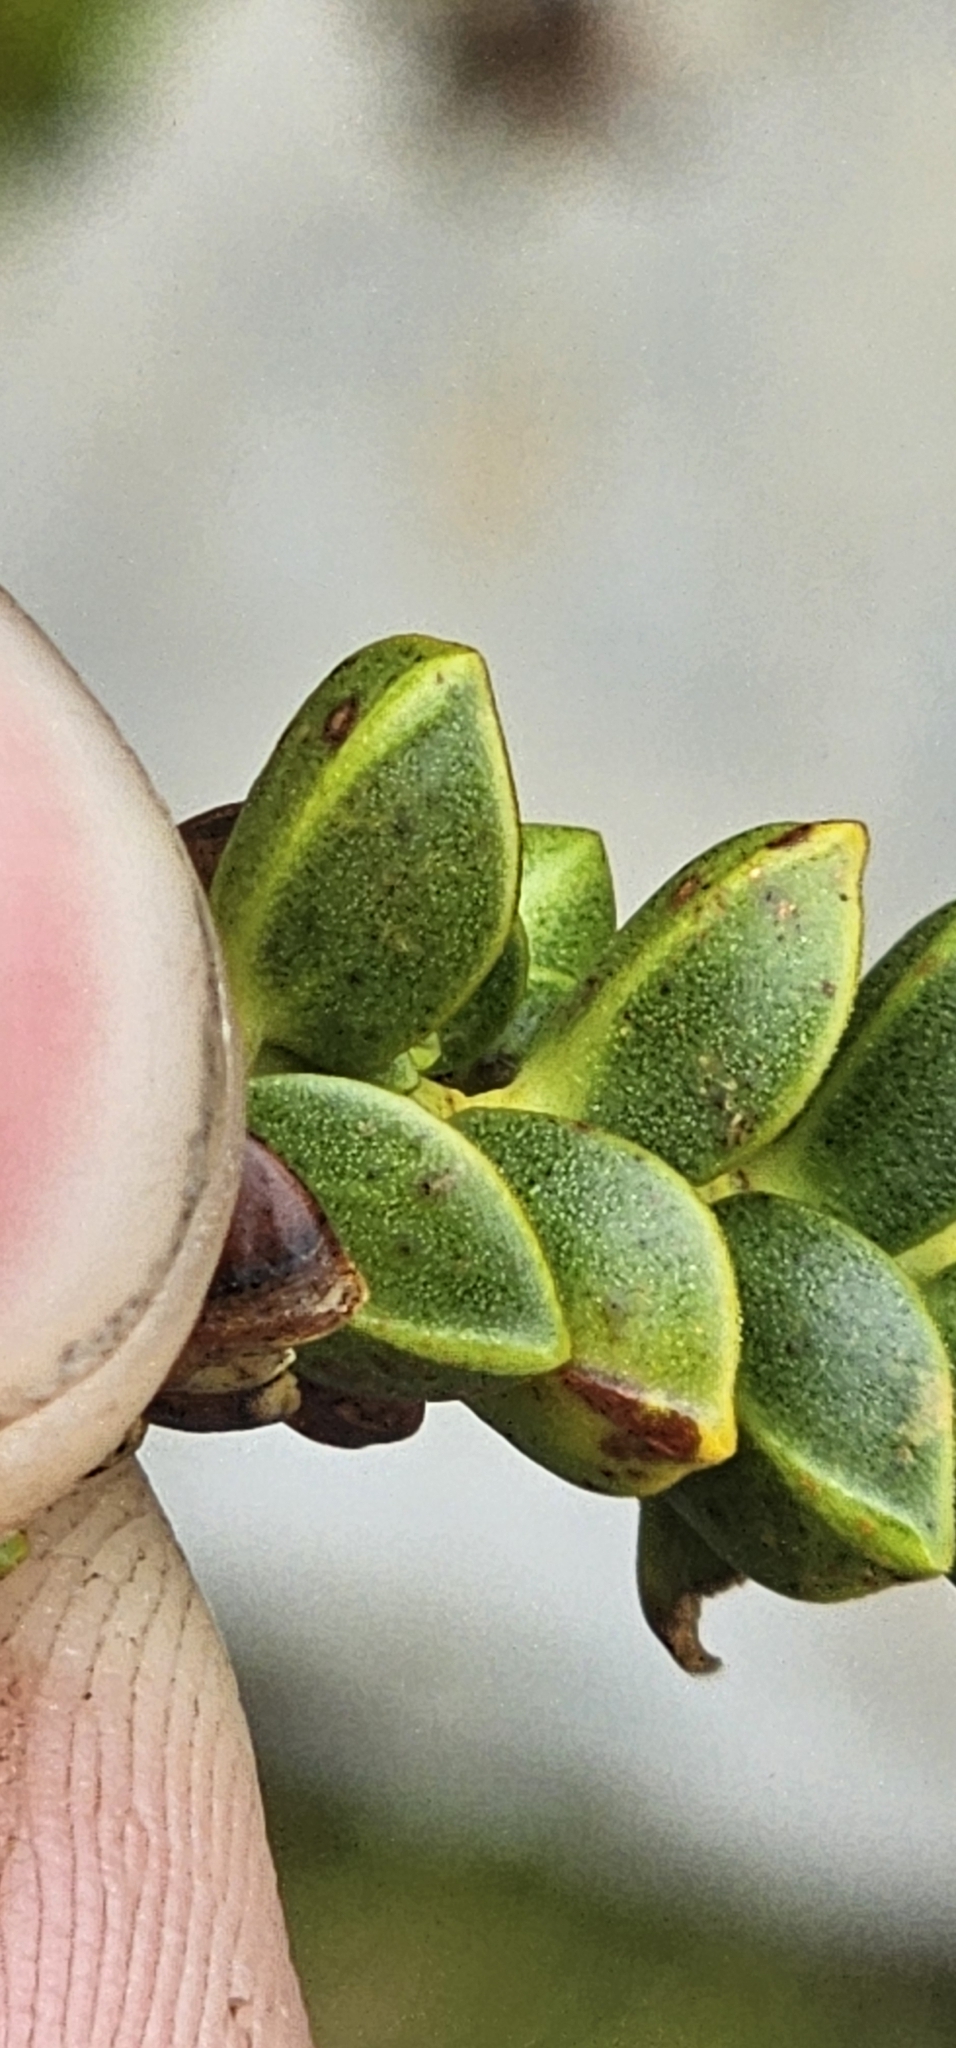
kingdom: Plantae
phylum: Tracheophyta
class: Magnoliopsida
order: Lamiales
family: Plantaginaceae
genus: Veronica
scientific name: Veronica pauciramosa
